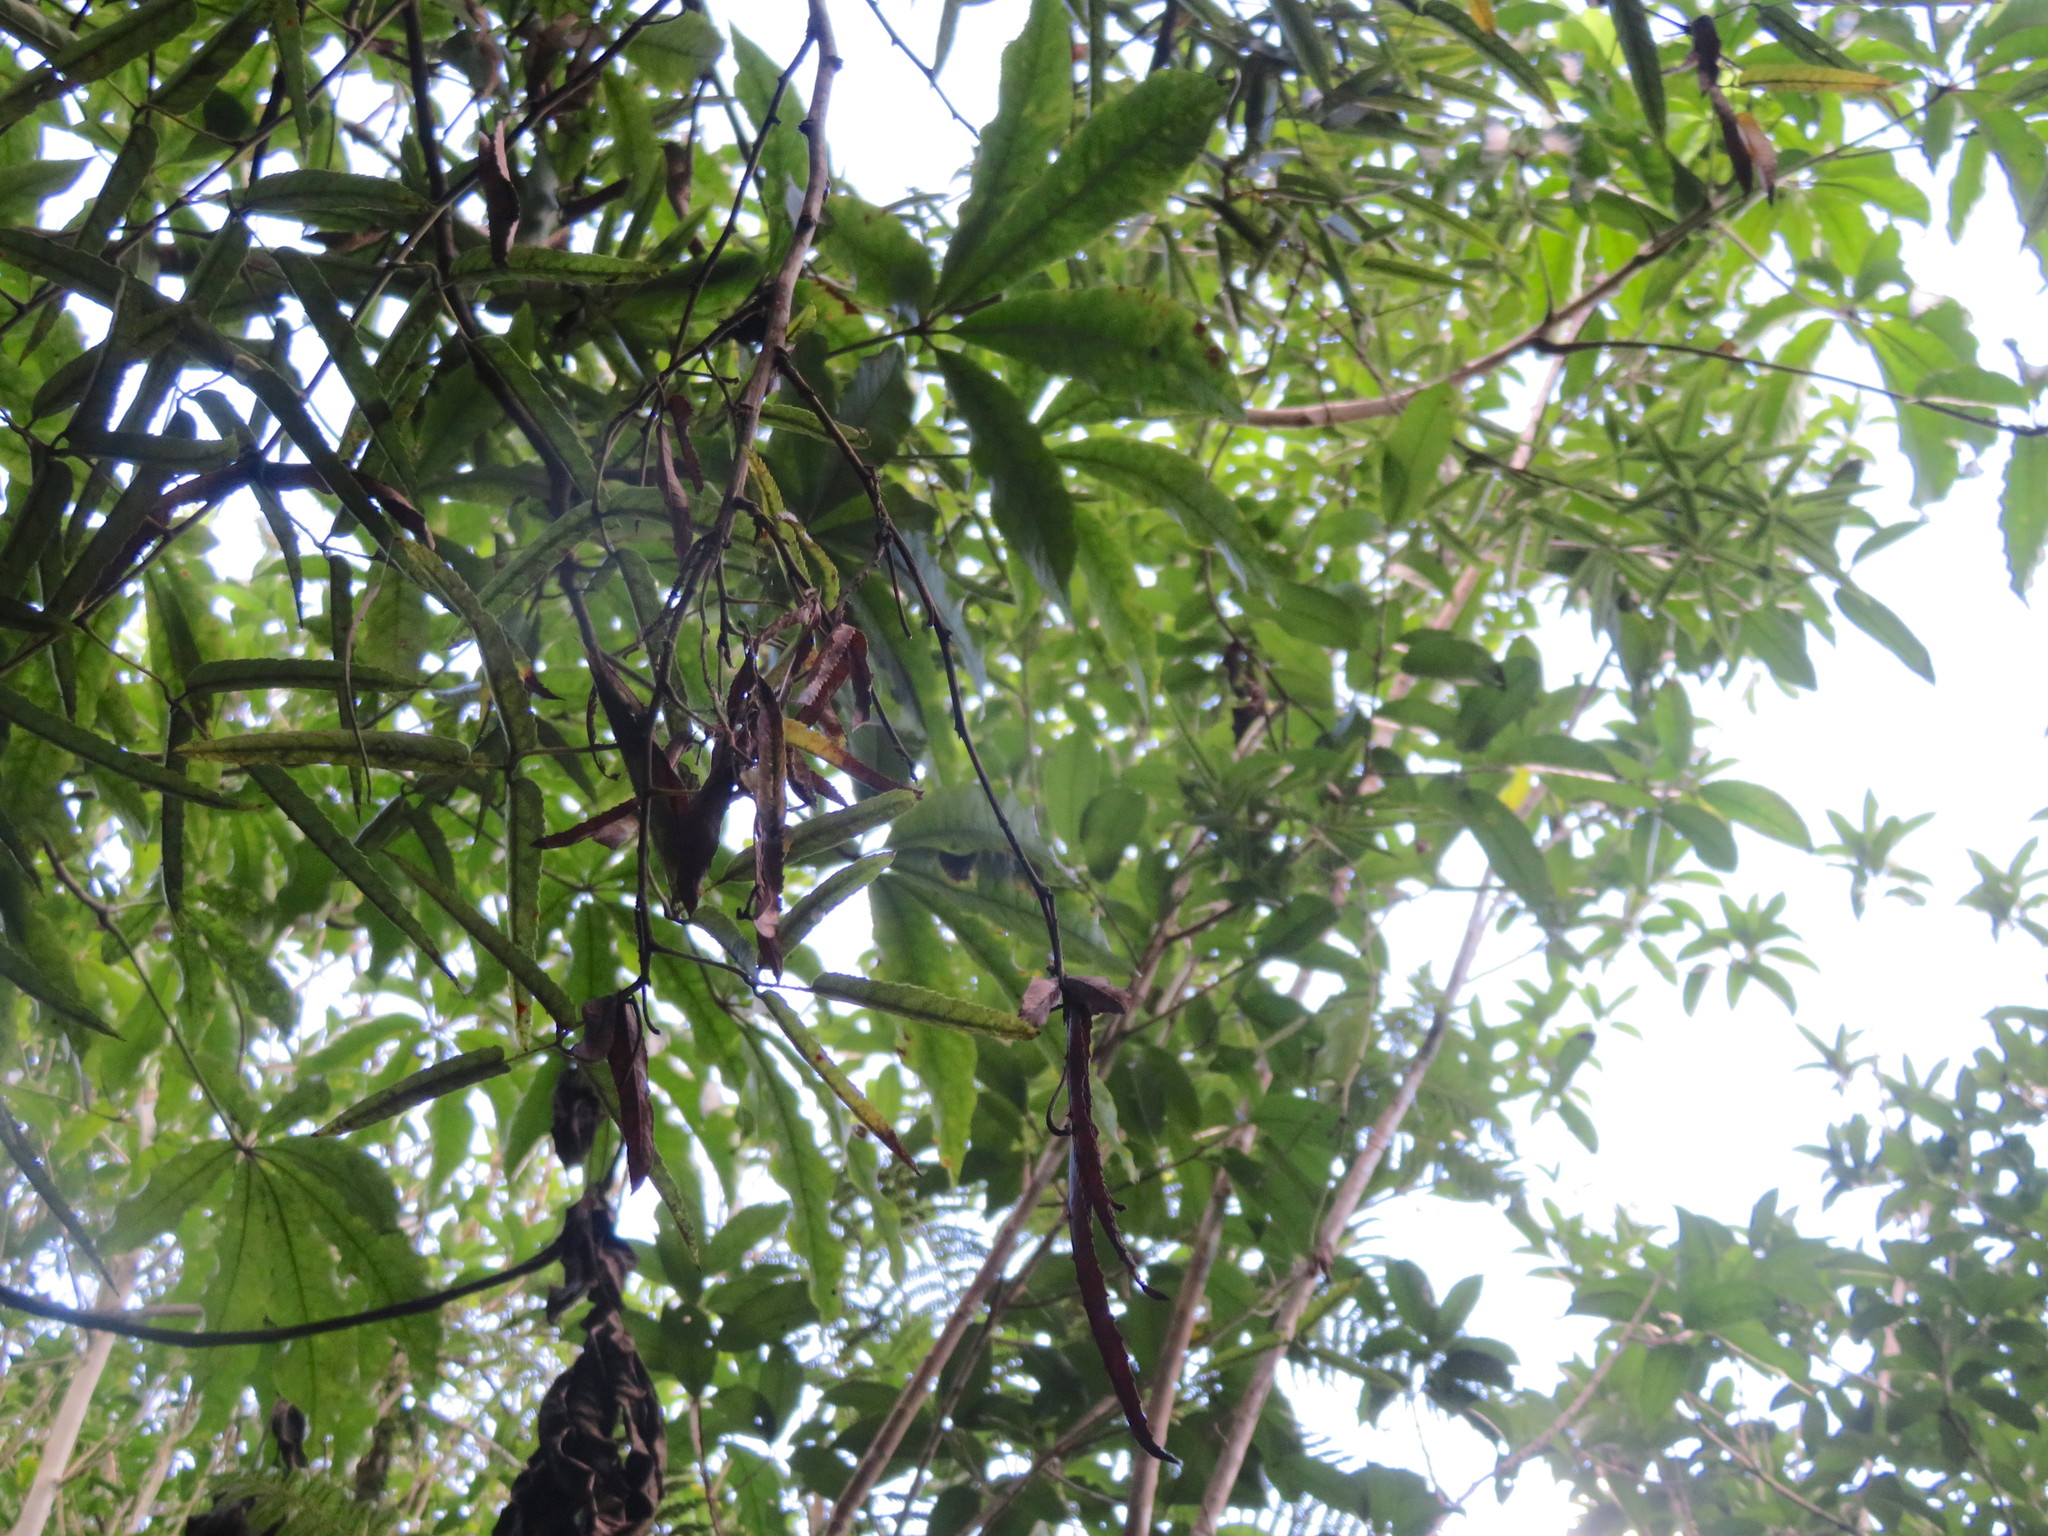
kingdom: Plantae
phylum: Tracheophyta
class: Magnoliopsida
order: Rosales
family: Rosaceae
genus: Rubus
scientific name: Rubus cissoides
